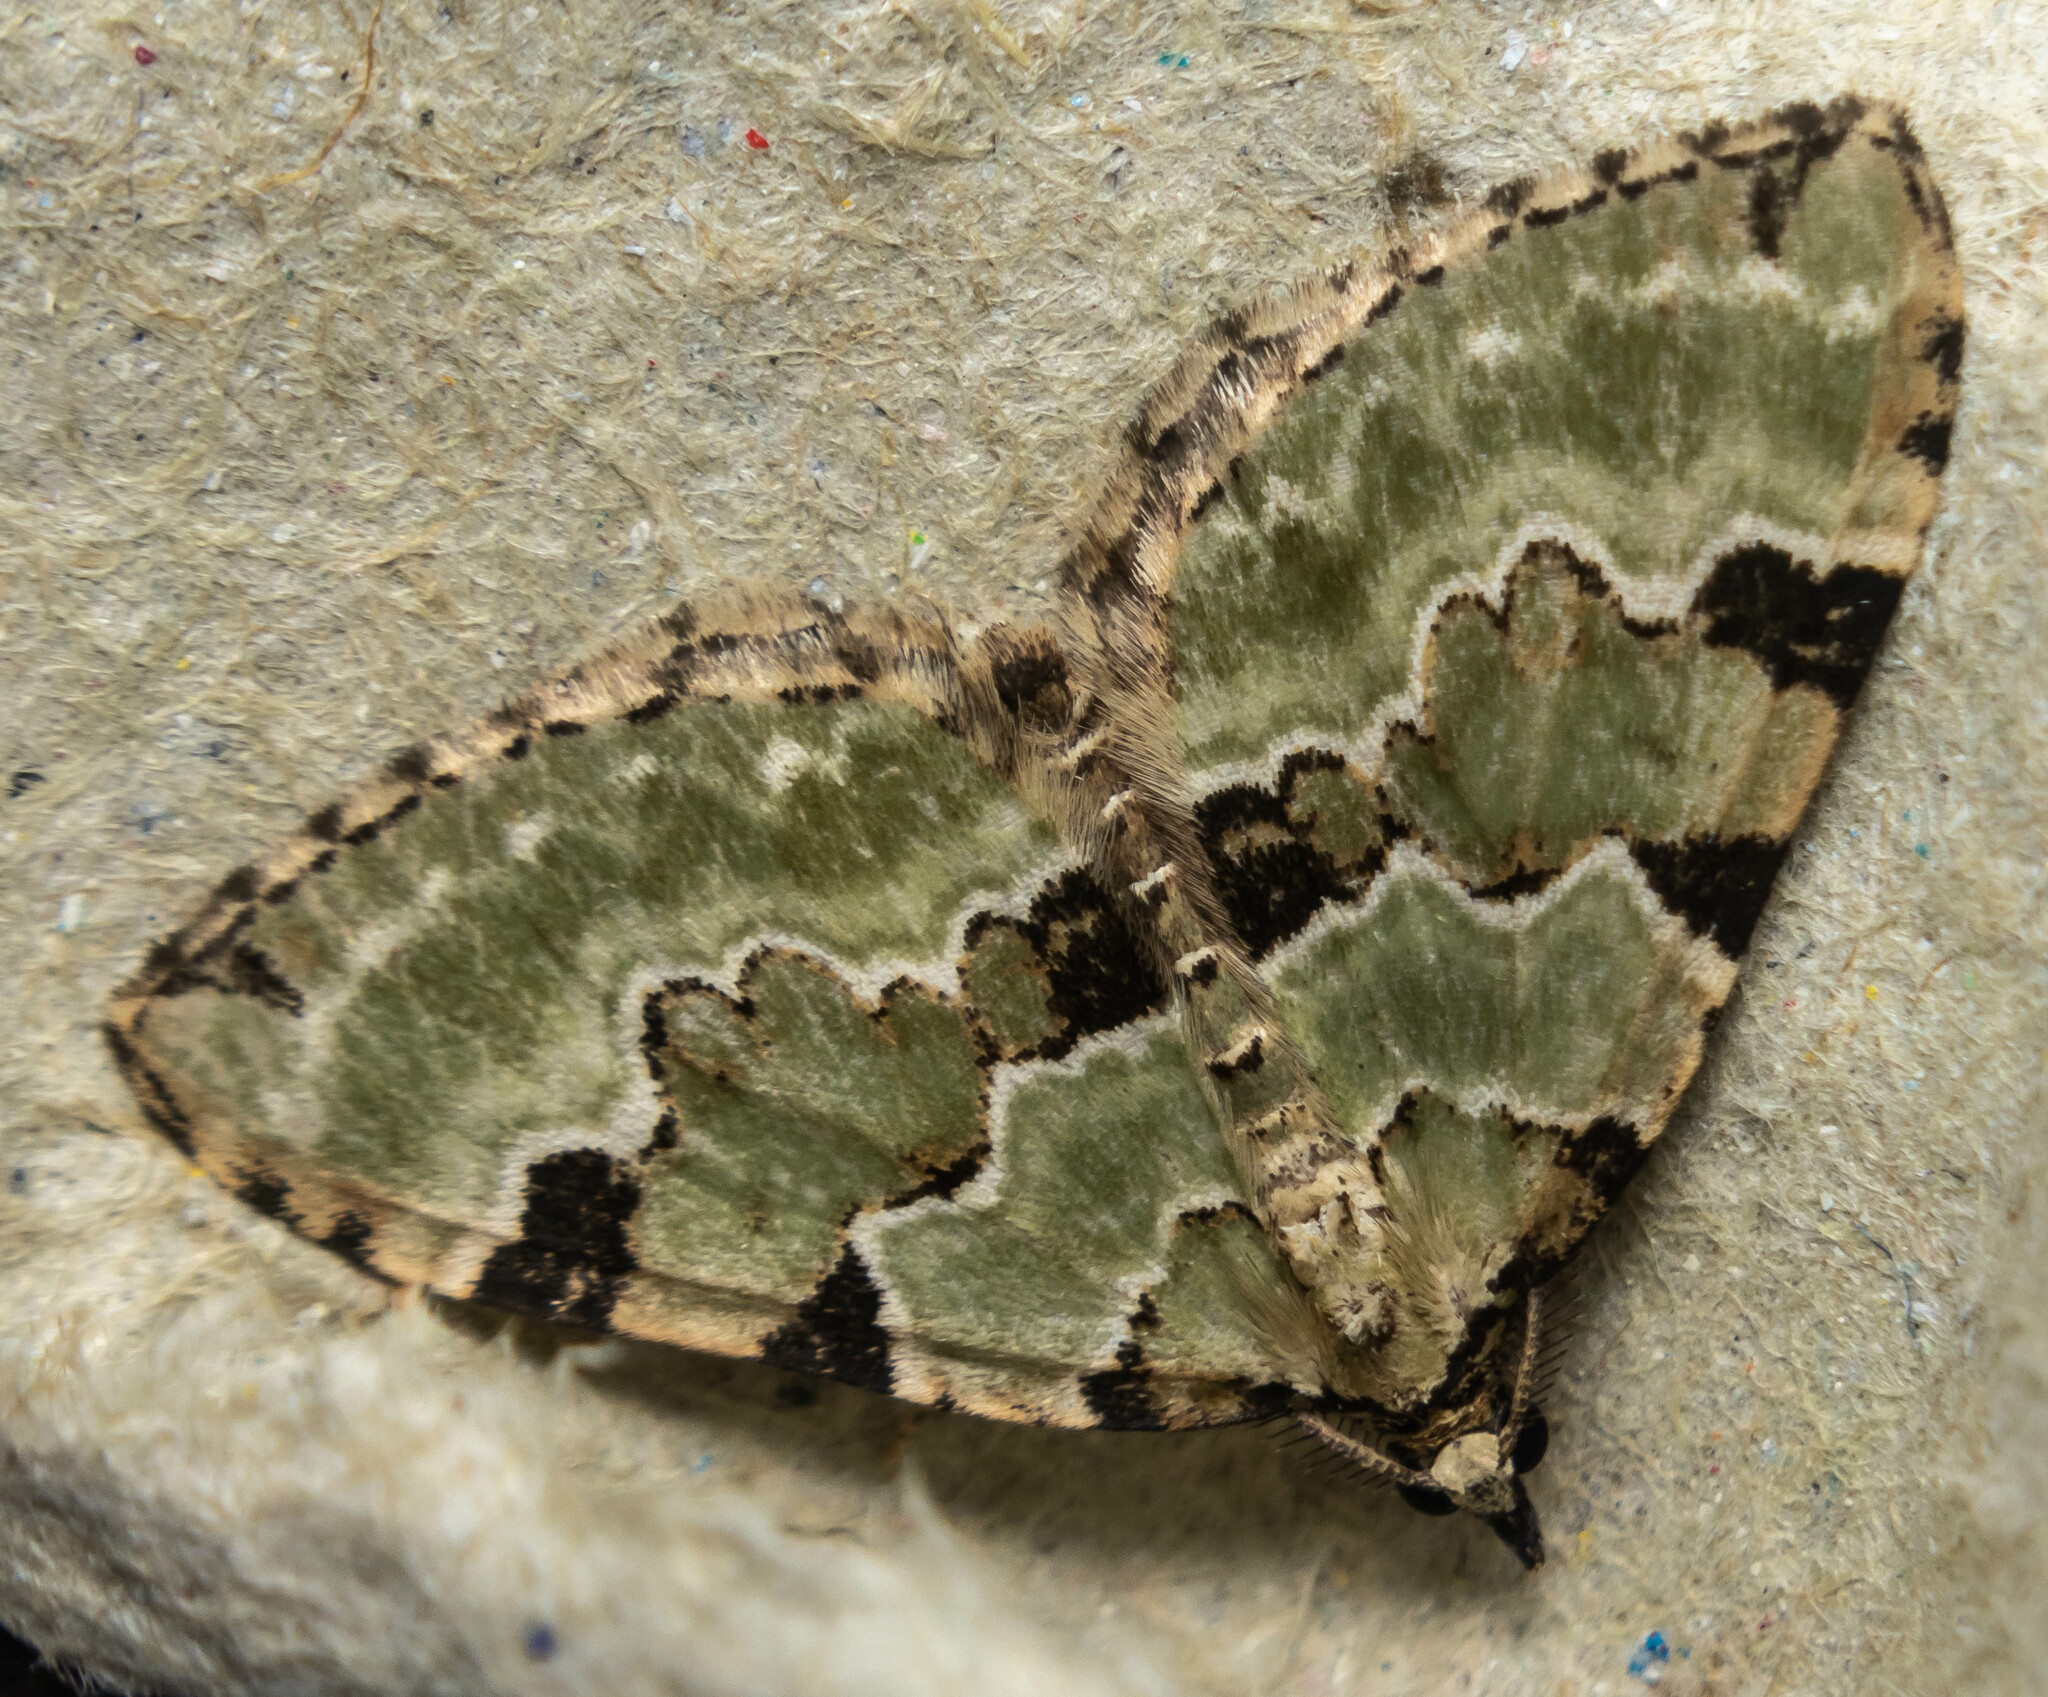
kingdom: Animalia
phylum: Arthropoda
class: Insecta
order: Lepidoptera
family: Geometridae
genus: Colostygia
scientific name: Colostygia pectinataria
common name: Green carpet
